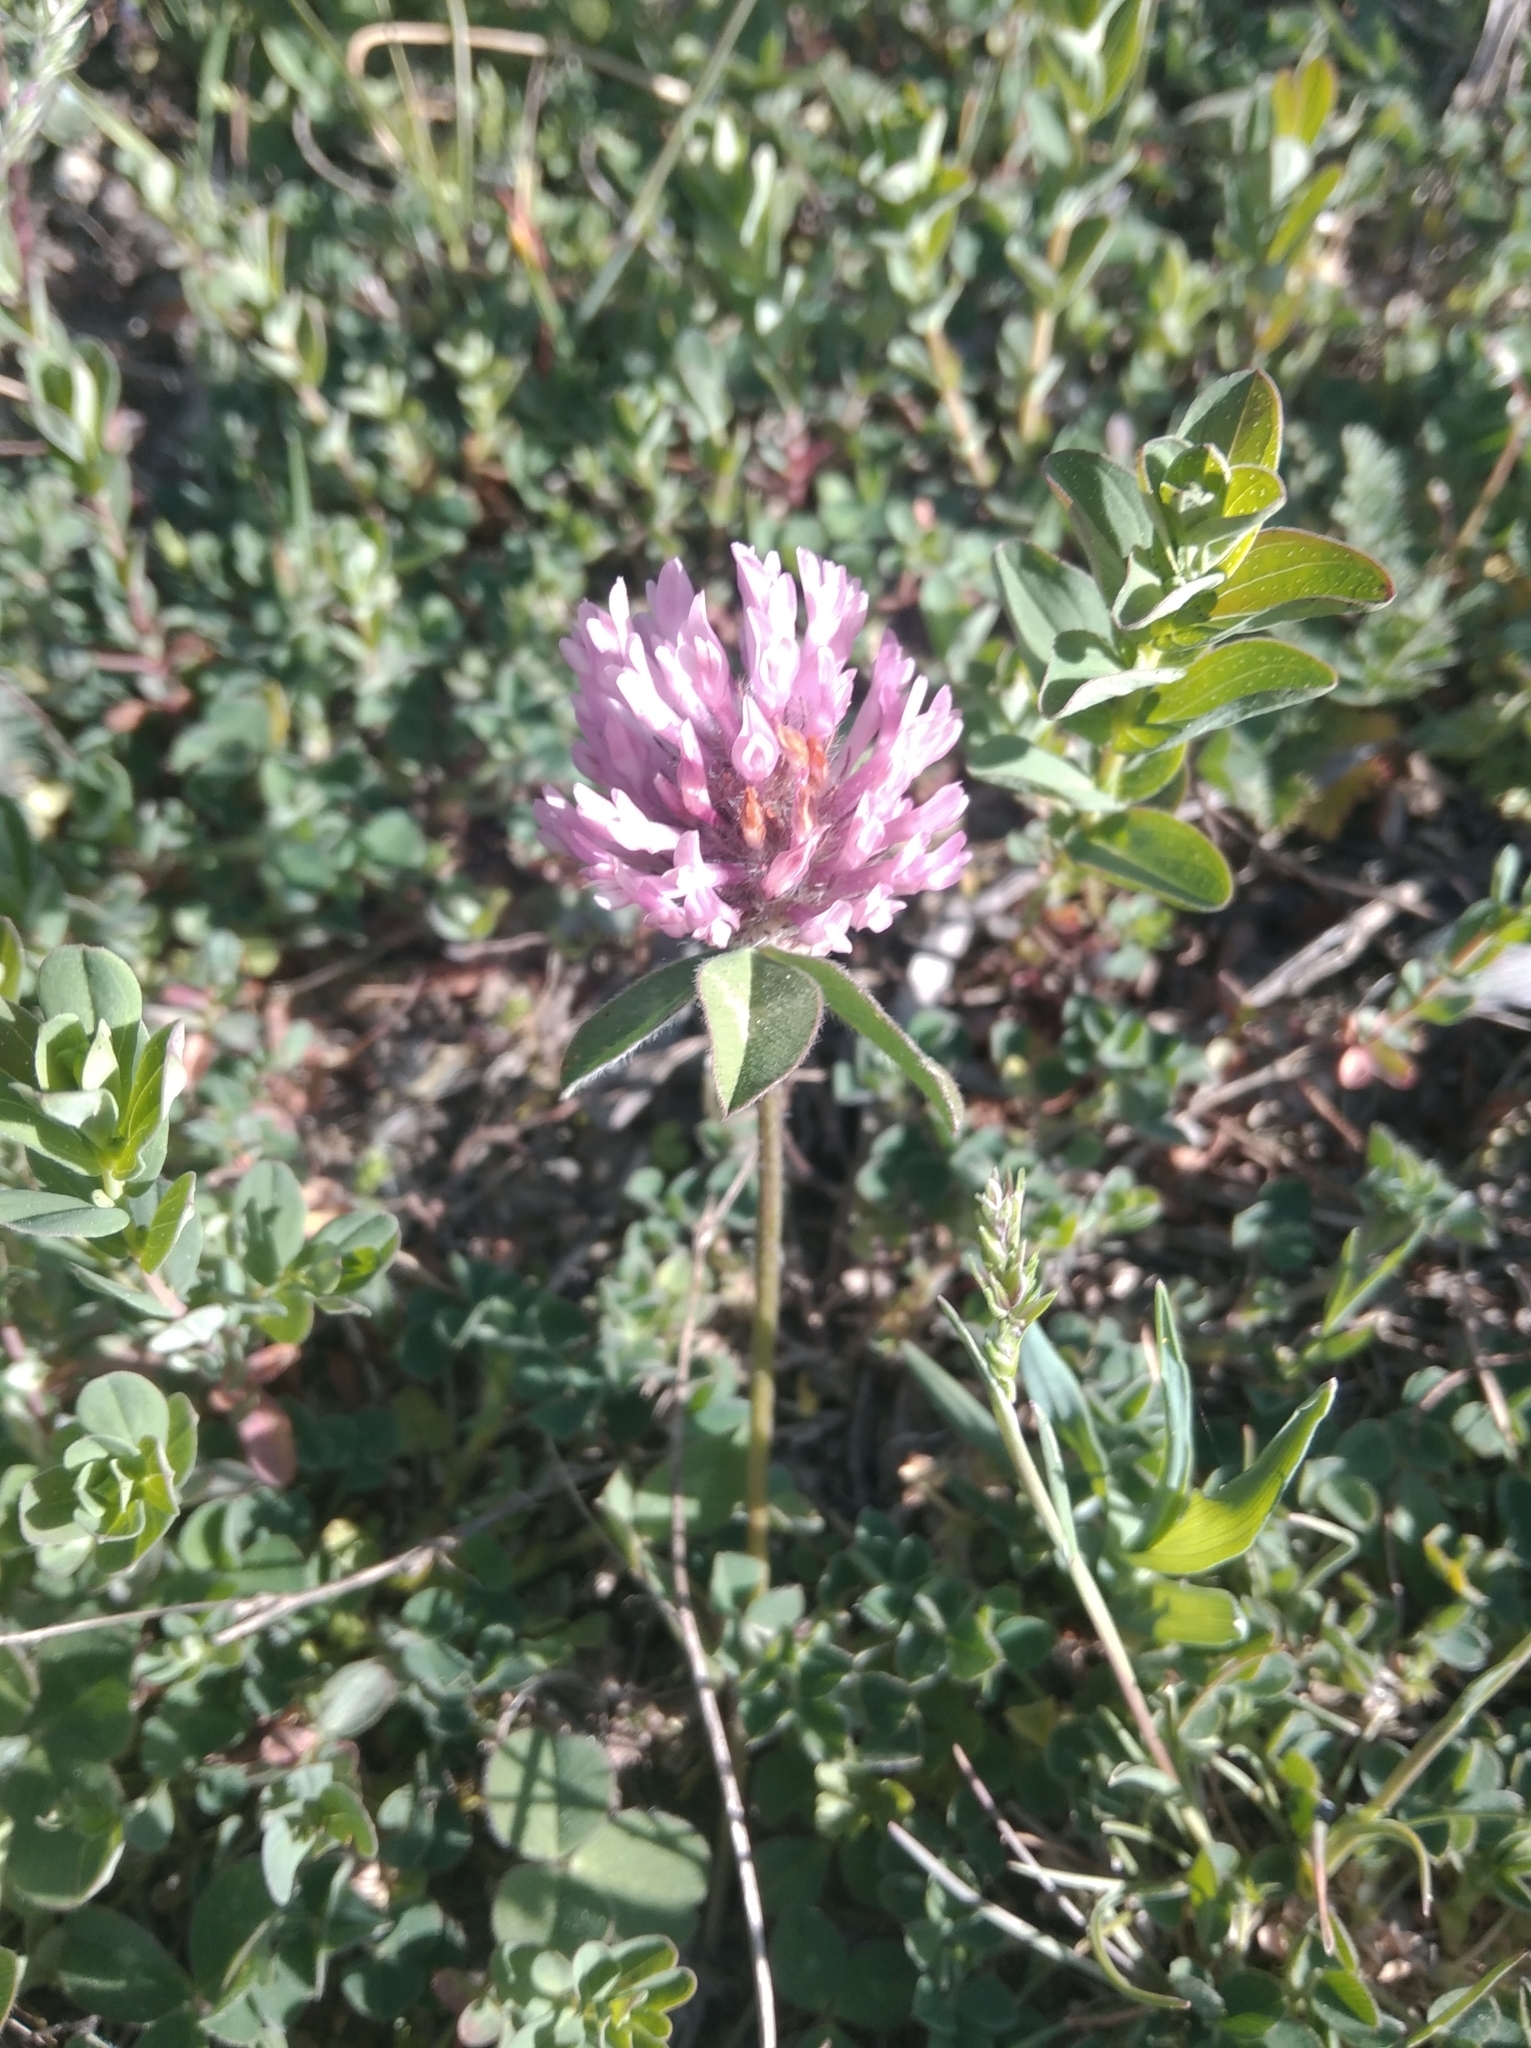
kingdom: Plantae
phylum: Tracheophyta
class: Magnoliopsida
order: Fabales
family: Fabaceae
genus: Trifolium
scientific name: Trifolium pratense
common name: Red clover
